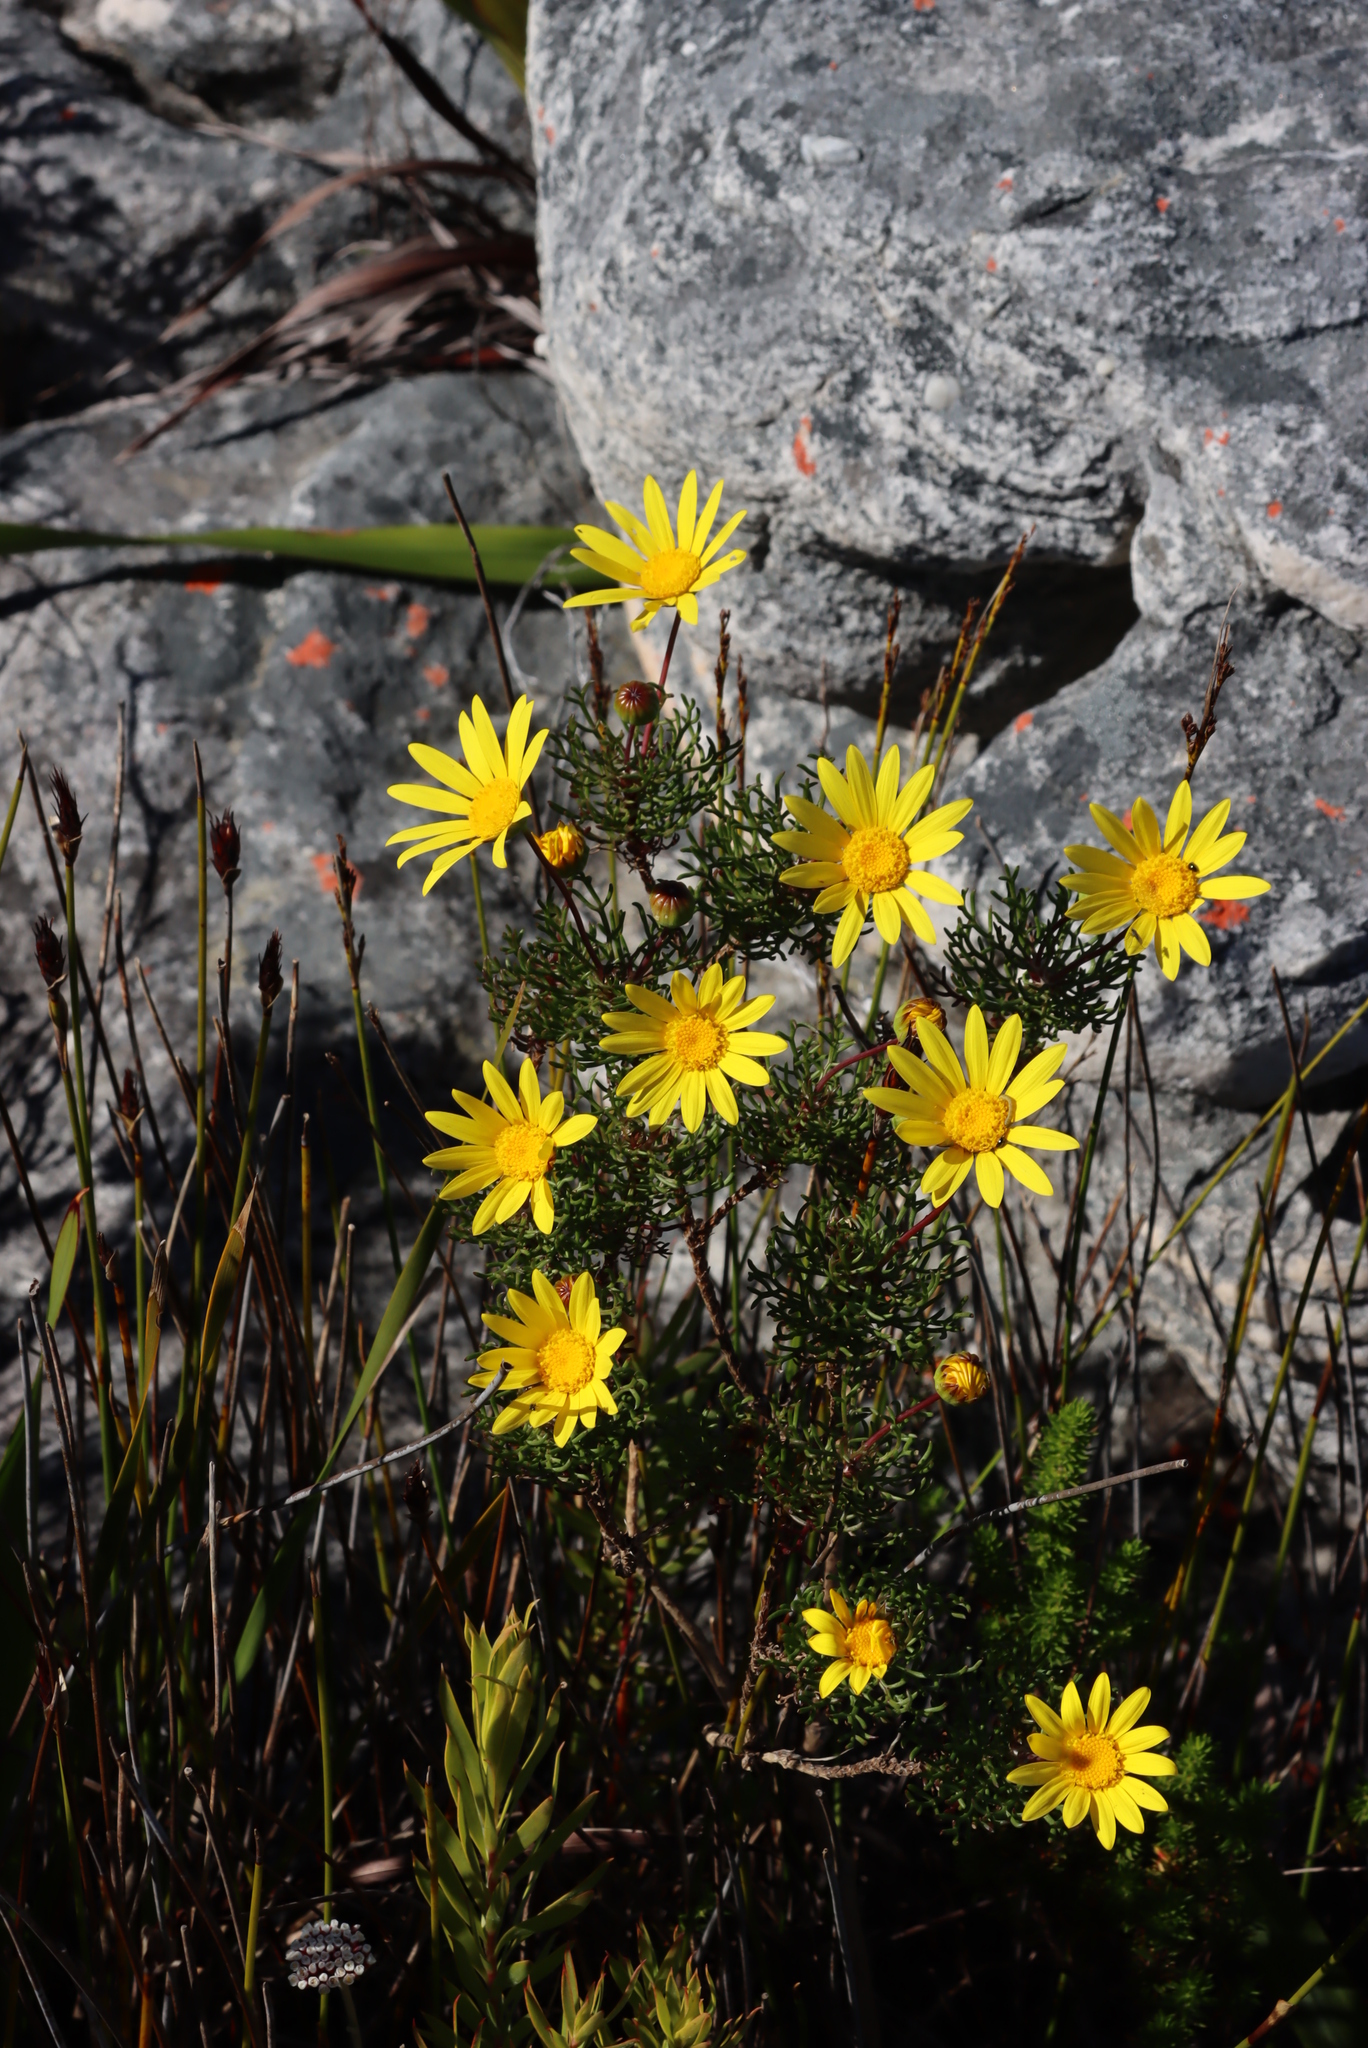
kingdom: Plantae
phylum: Tracheophyta
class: Magnoliopsida
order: Asterales
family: Asteraceae
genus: Euryops
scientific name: Euryops abrotanifolius
